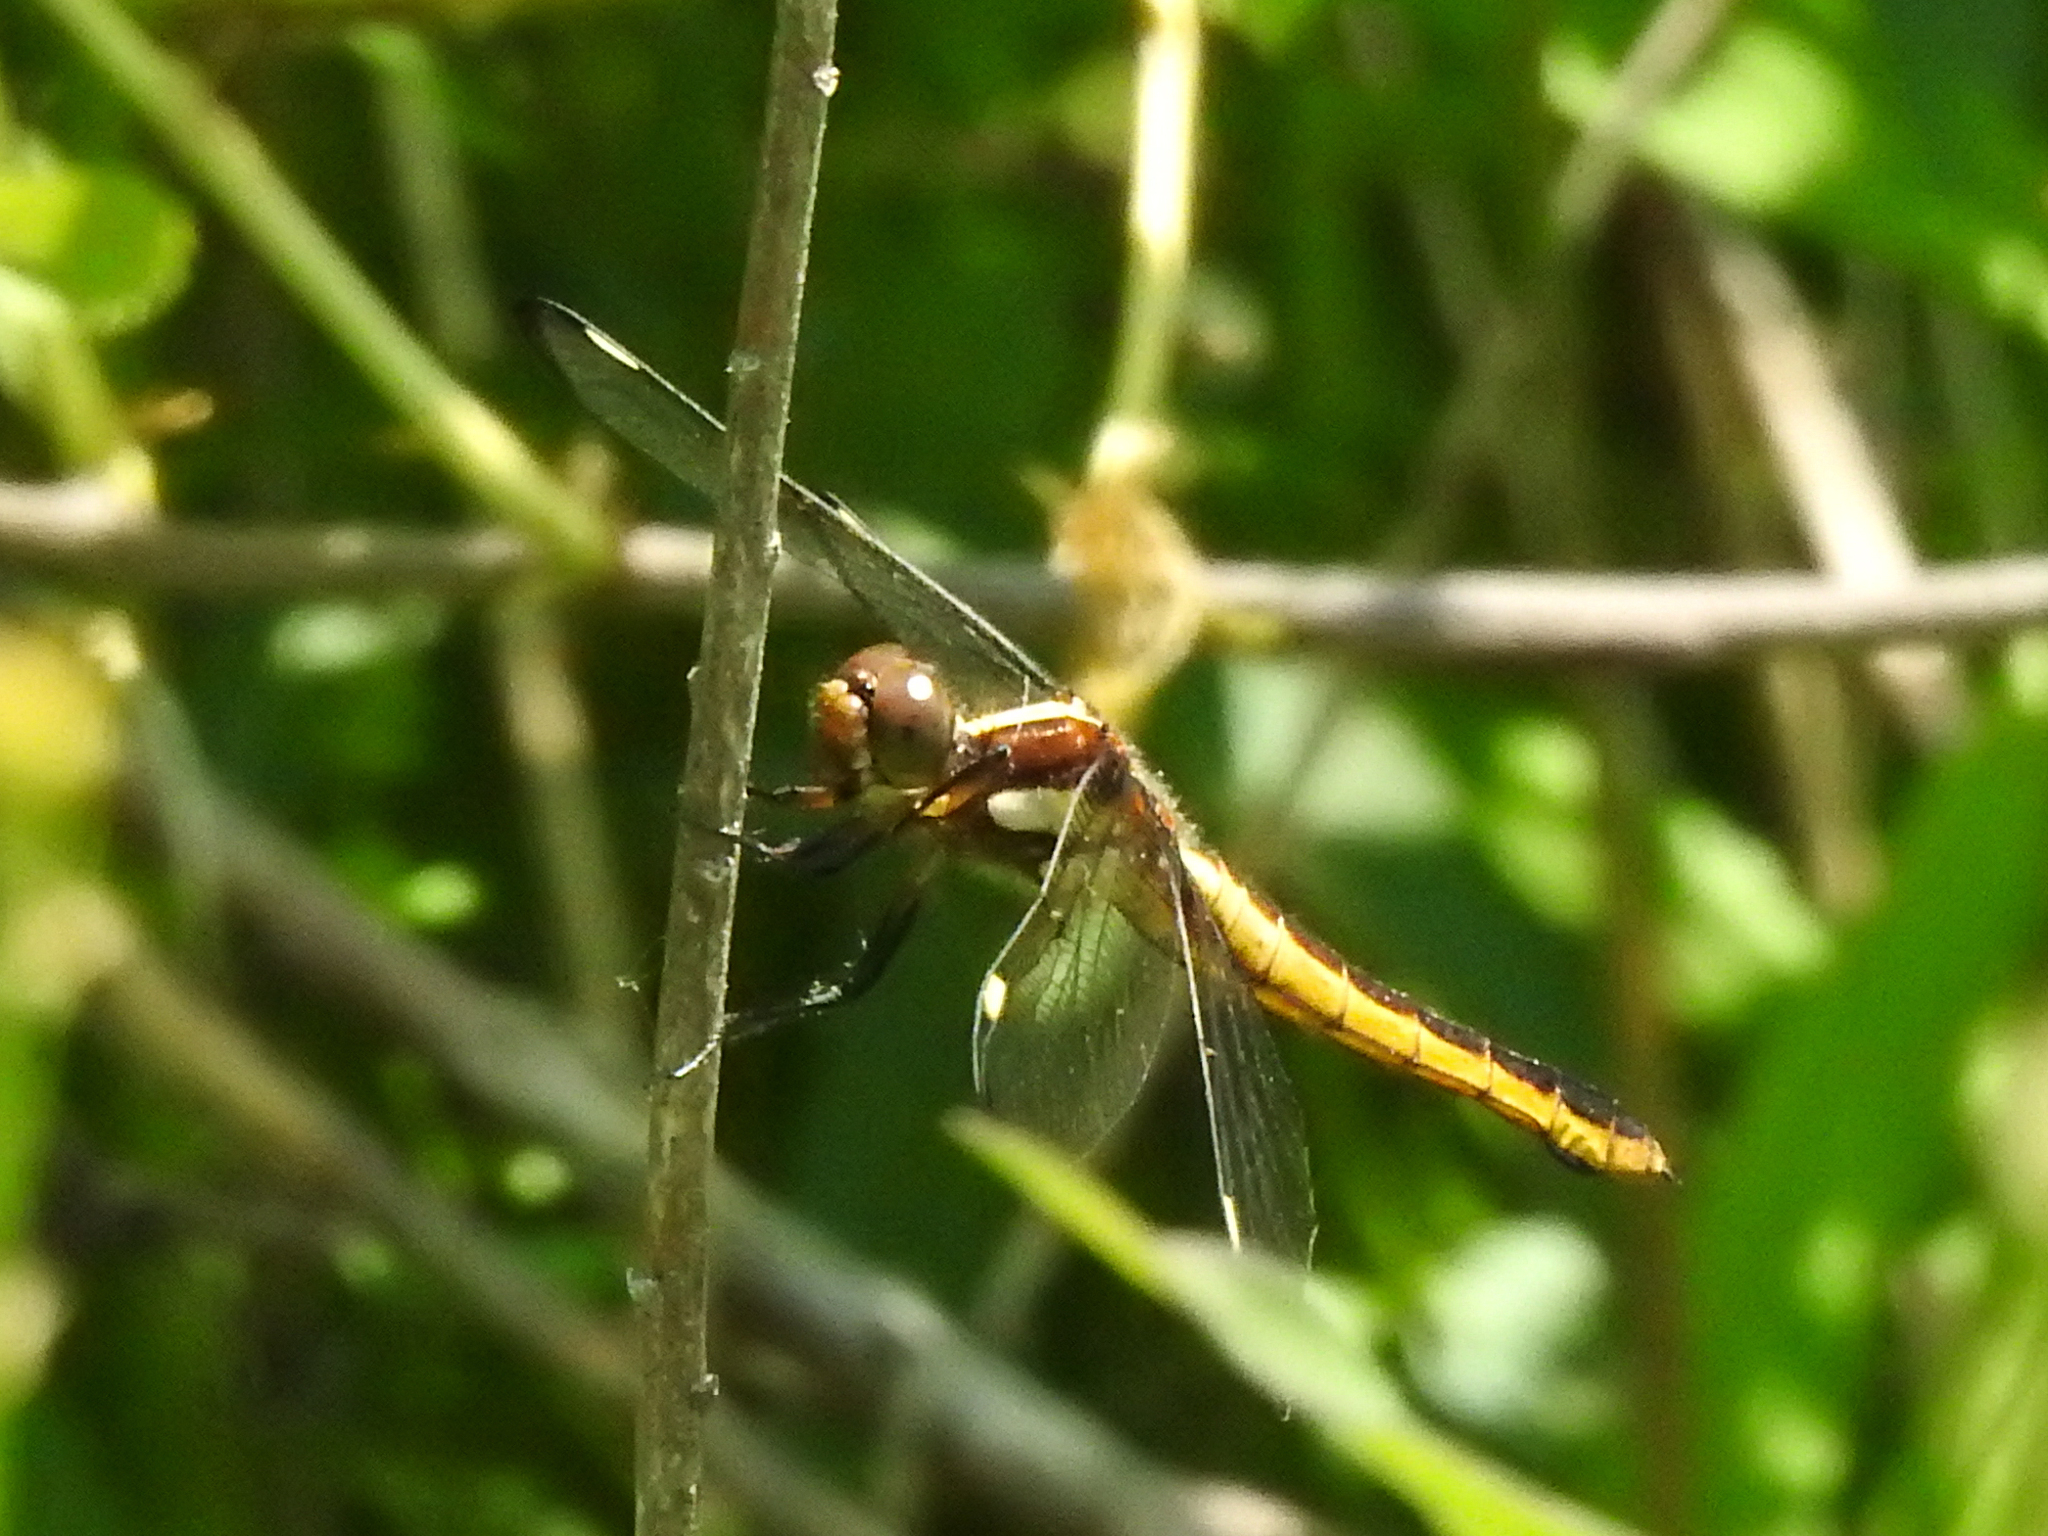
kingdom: Animalia
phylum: Arthropoda
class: Insecta
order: Odonata
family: Libellulidae
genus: Libellula
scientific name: Libellula cyanea
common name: Spangled skimmer
